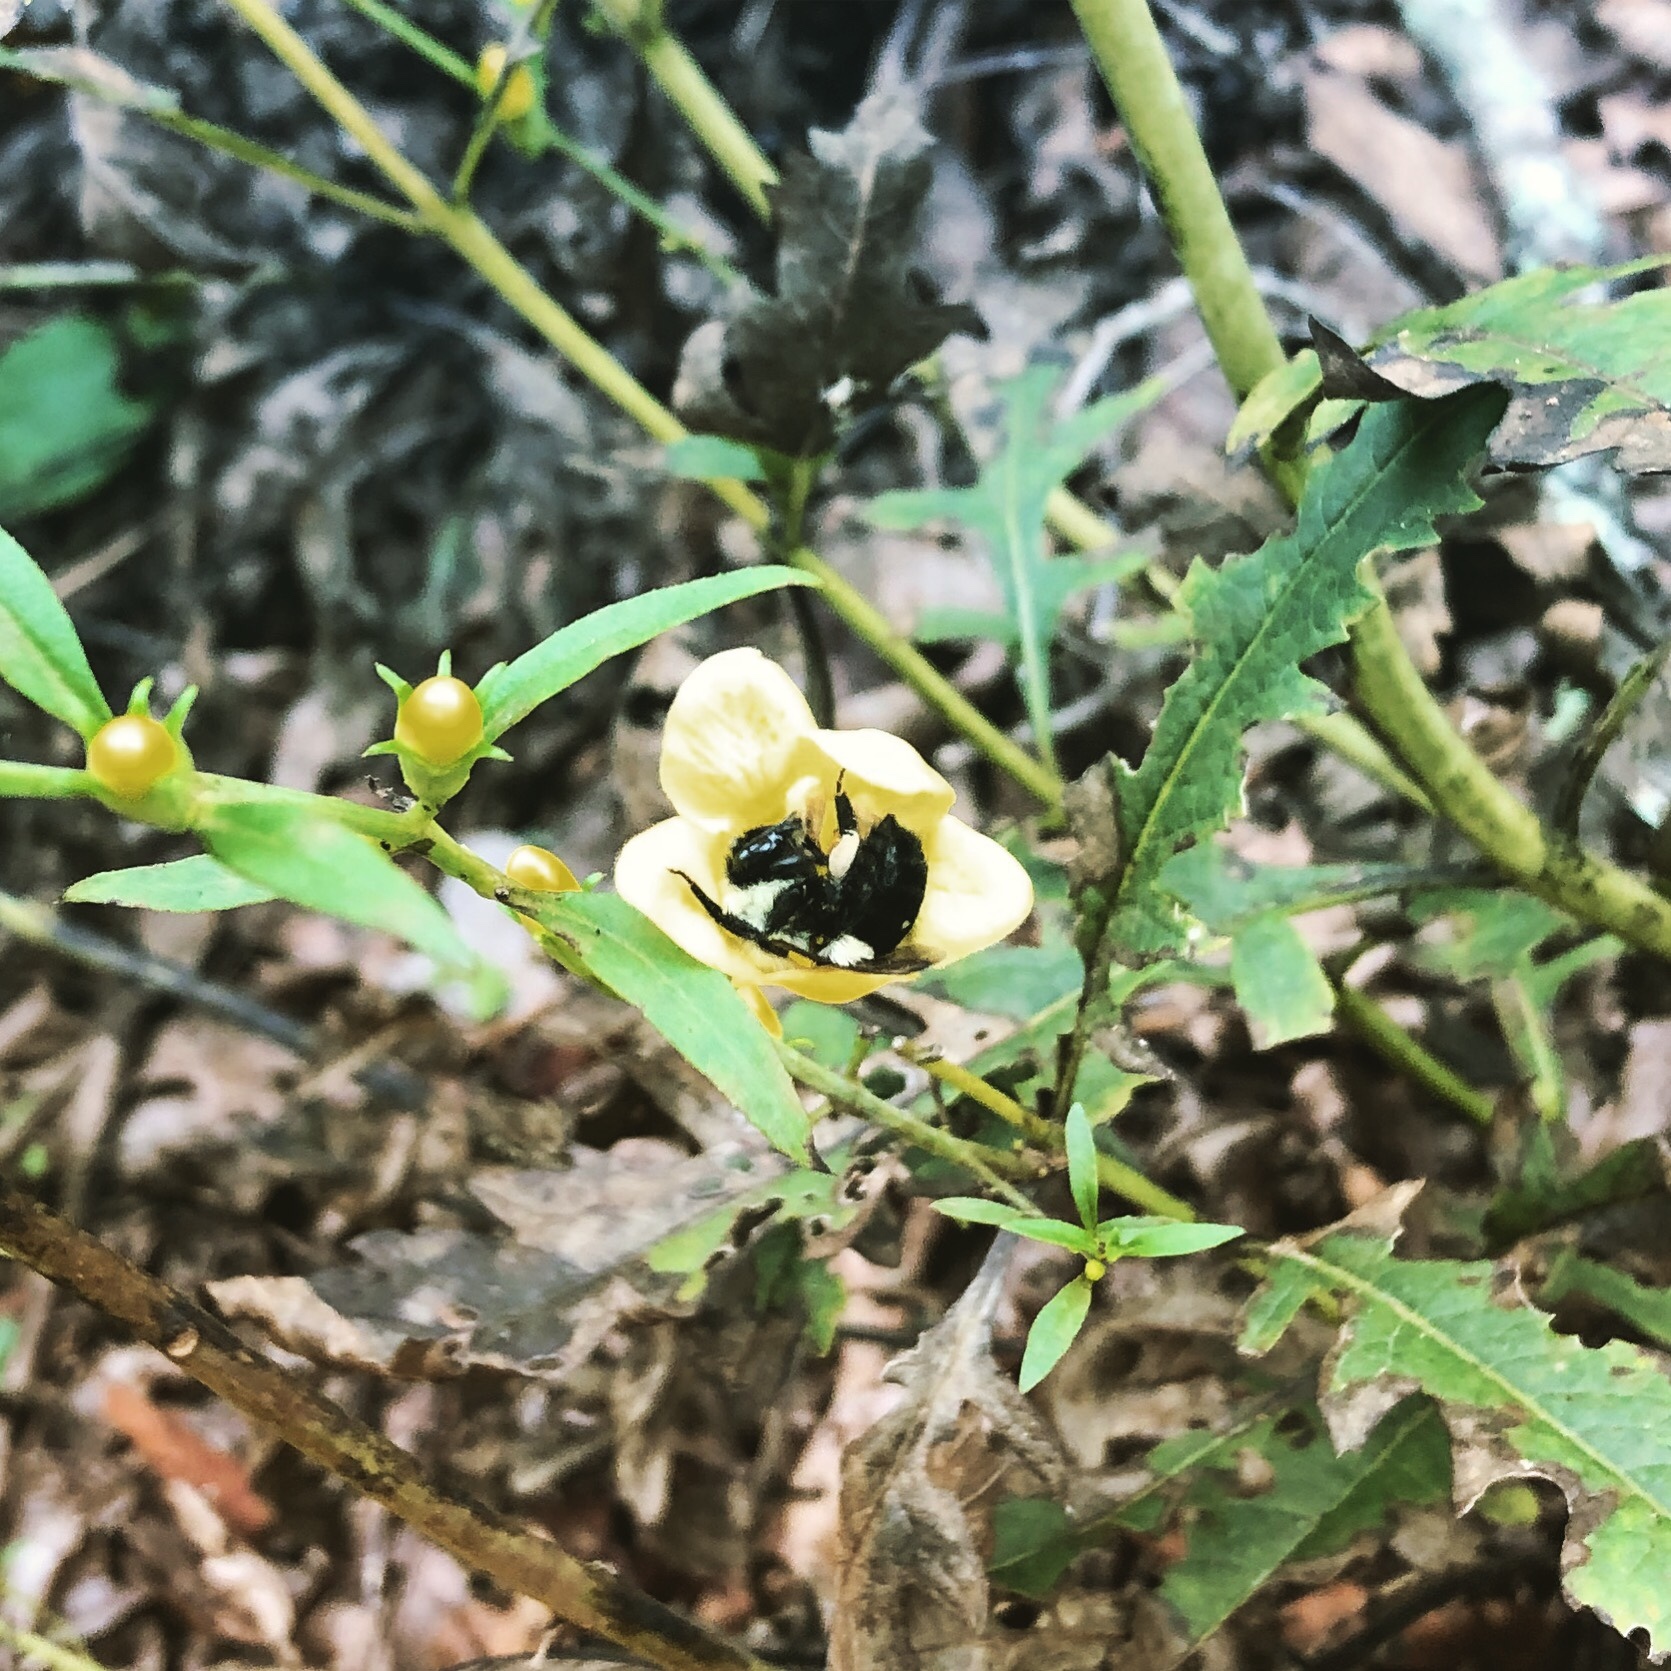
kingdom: Animalia
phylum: Arthropoda
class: Insecta
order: Hymenoptera
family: Apidae
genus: Bombus
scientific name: Bombus impatiens
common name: Common eastern bumble bee
